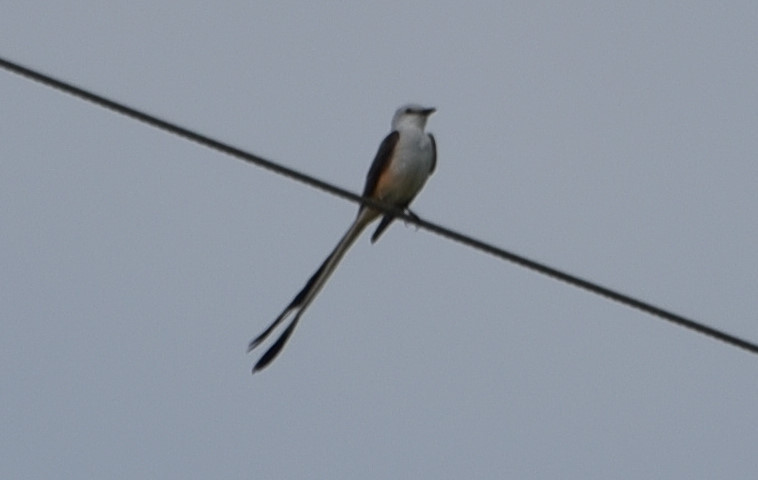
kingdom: Animalia
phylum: Chordata
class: Aves
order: Passeriformes
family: Tyrannidae
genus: Tyrannus
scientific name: Tyrannus forficatus
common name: Scissor-tailed flycatcher
